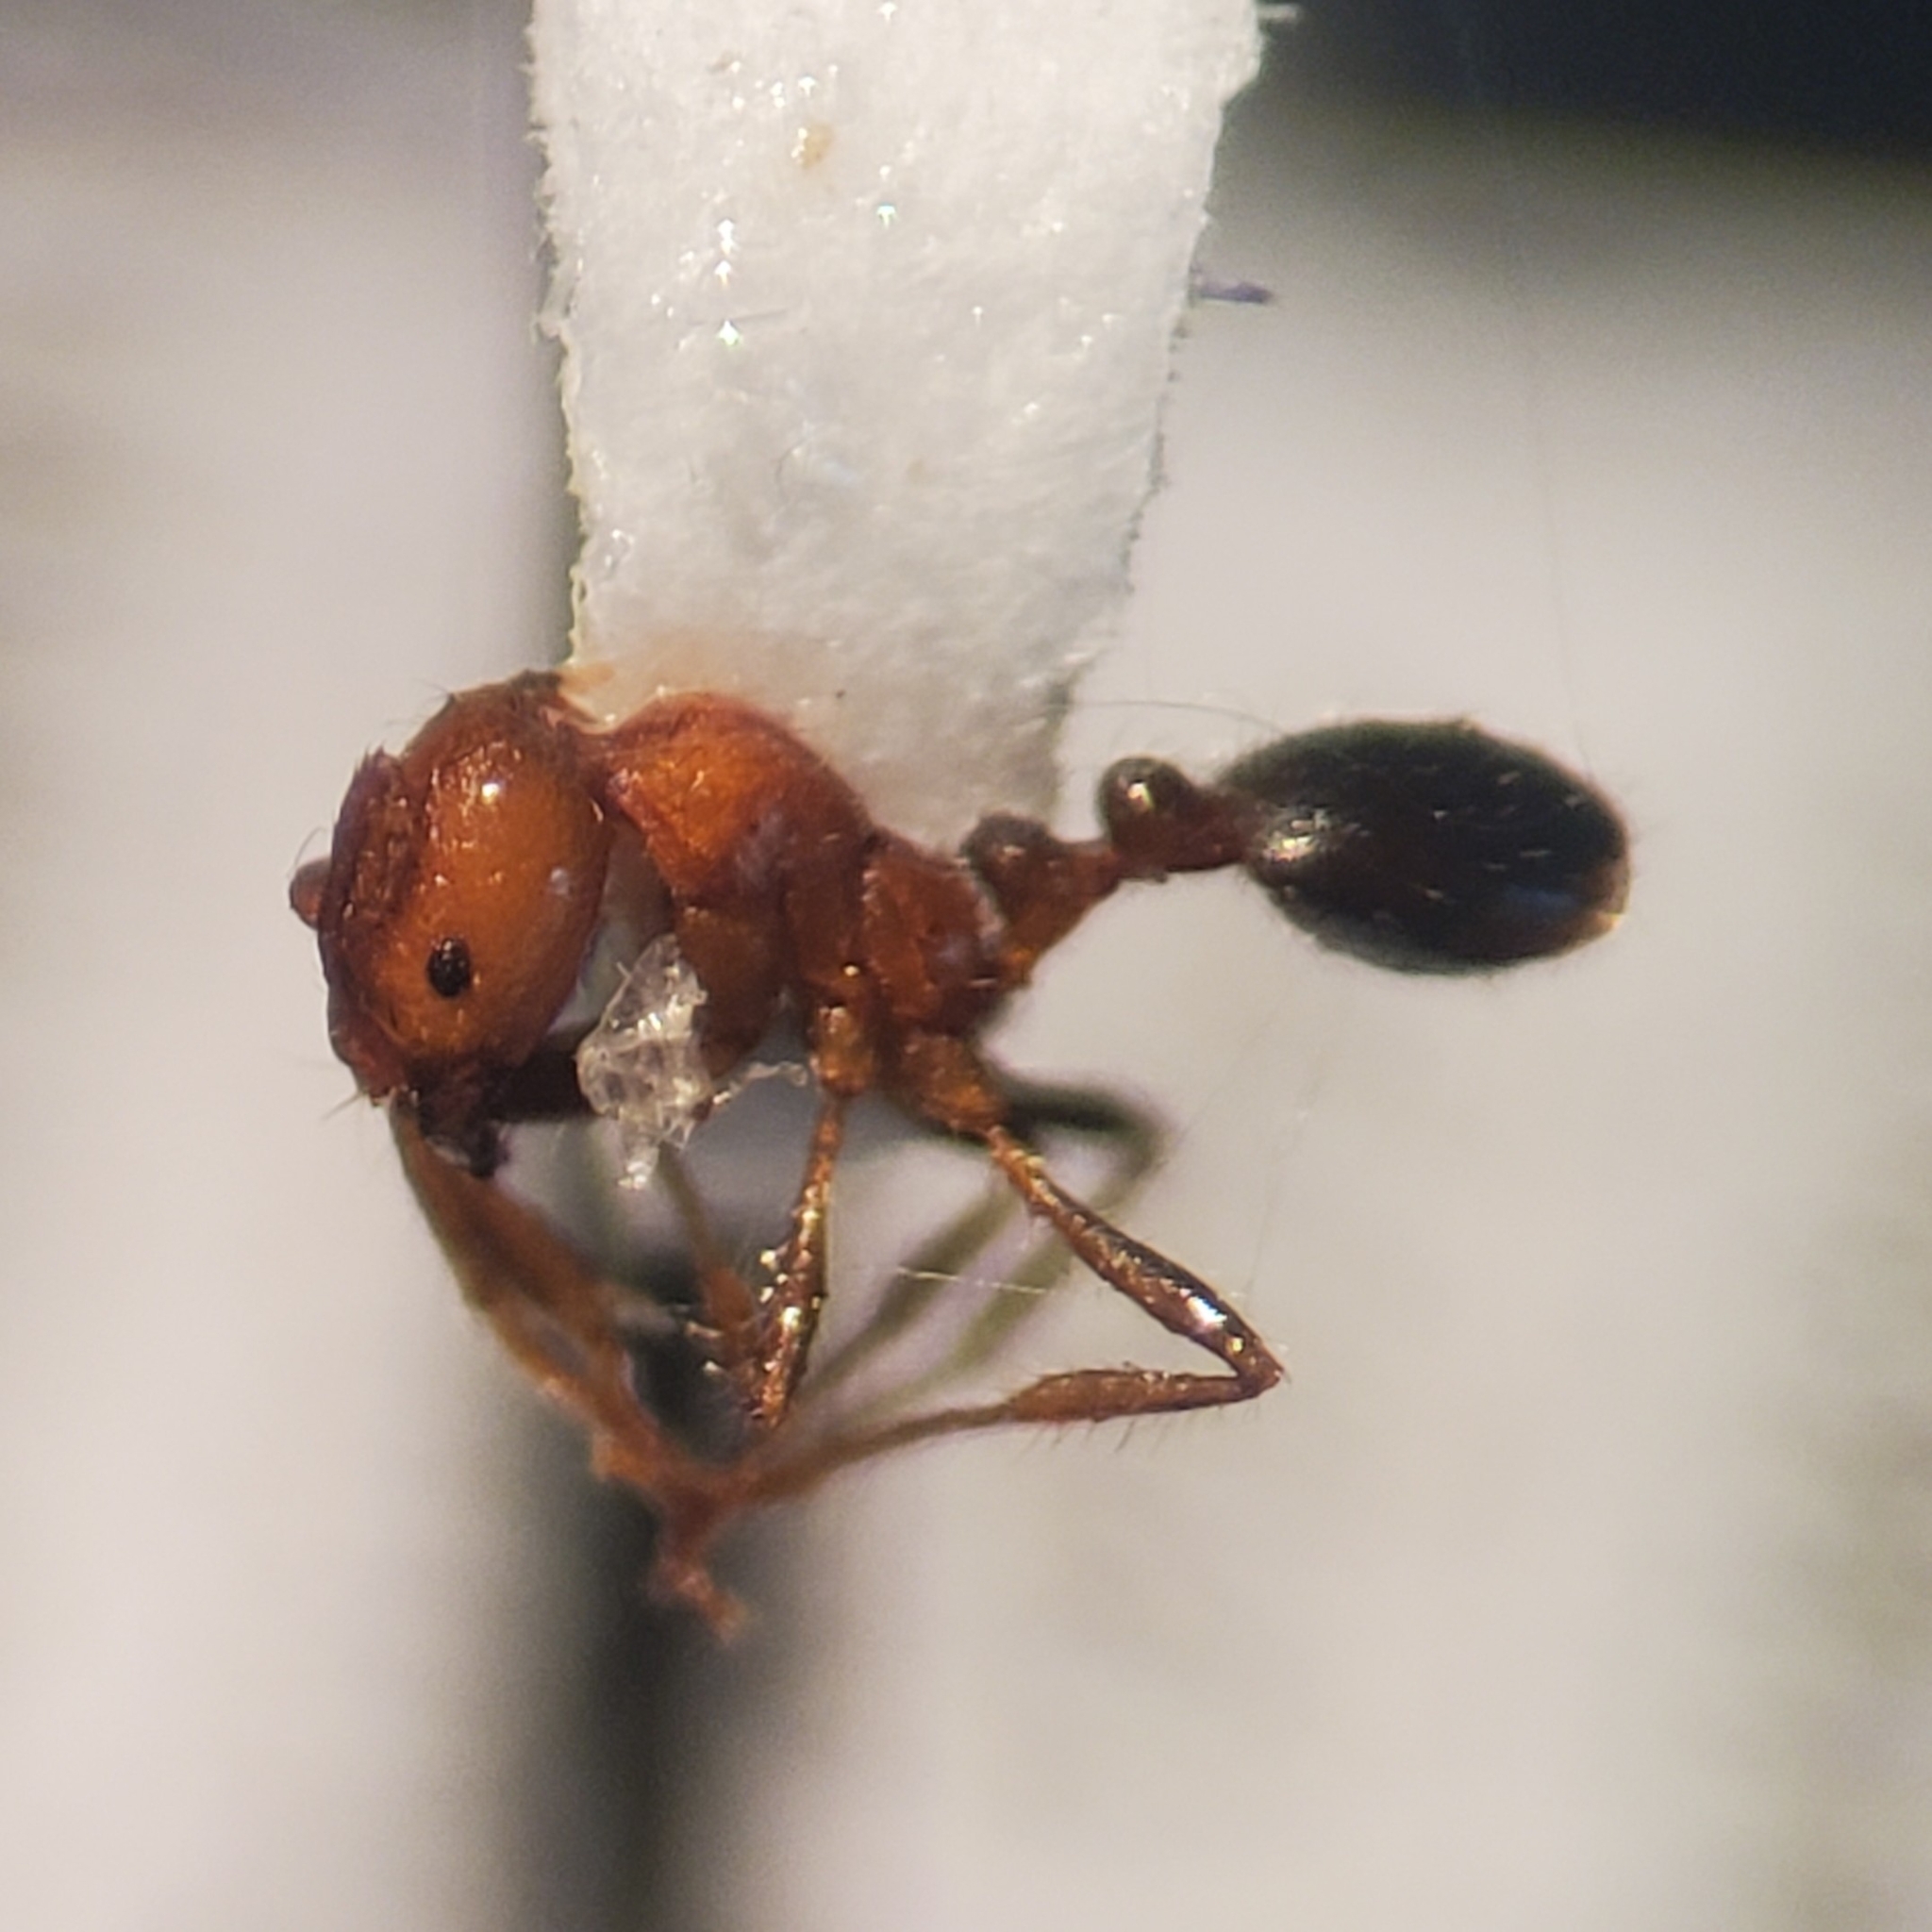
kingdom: Animalia
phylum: Arthropoda
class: Insecta
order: Hymenoptera
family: Formicidae
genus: Solenopsis
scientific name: Solenopsis xyloni
